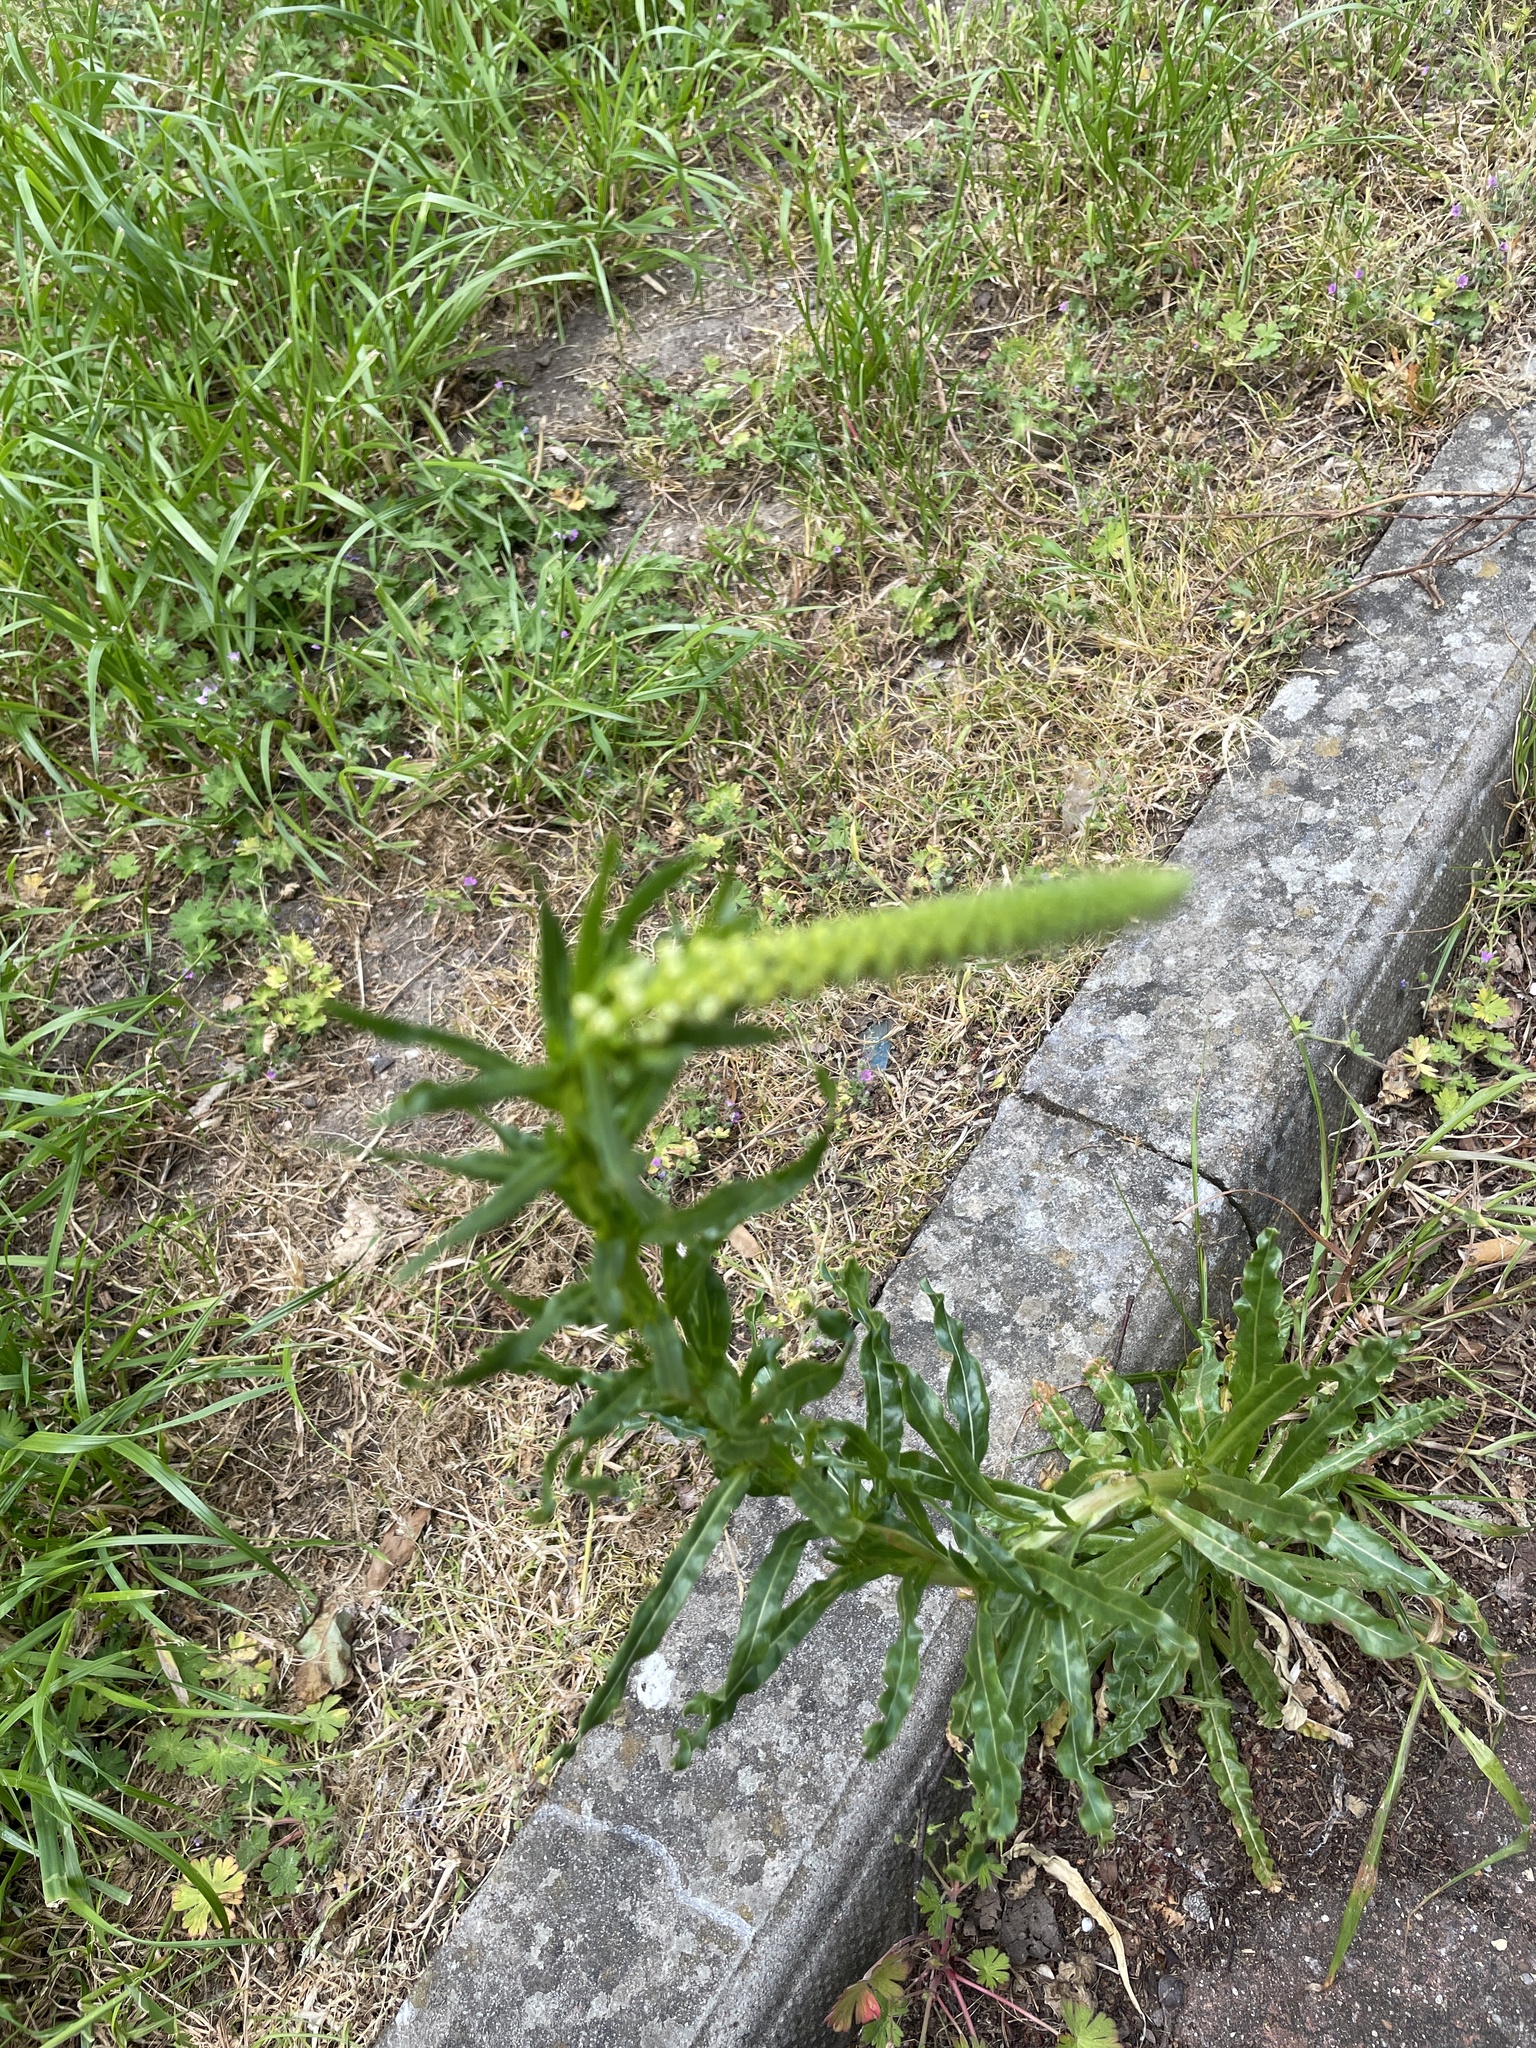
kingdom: Plantae
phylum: Tracheophyta
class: Magnoliopsida
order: Brassicales
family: Resedaceae
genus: Reseda
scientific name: Reseda luteola
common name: Weld
